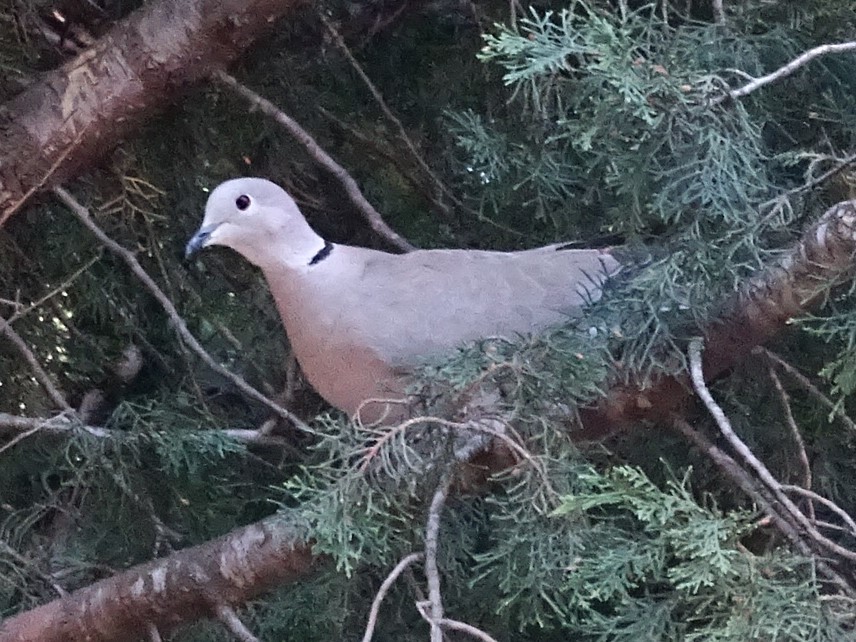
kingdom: Animalia
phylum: Chordata
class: Aves
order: Columbiformes
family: Columbidae
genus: Streptopelia
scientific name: Streptopelia decaocto
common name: Eurasian collared dove
